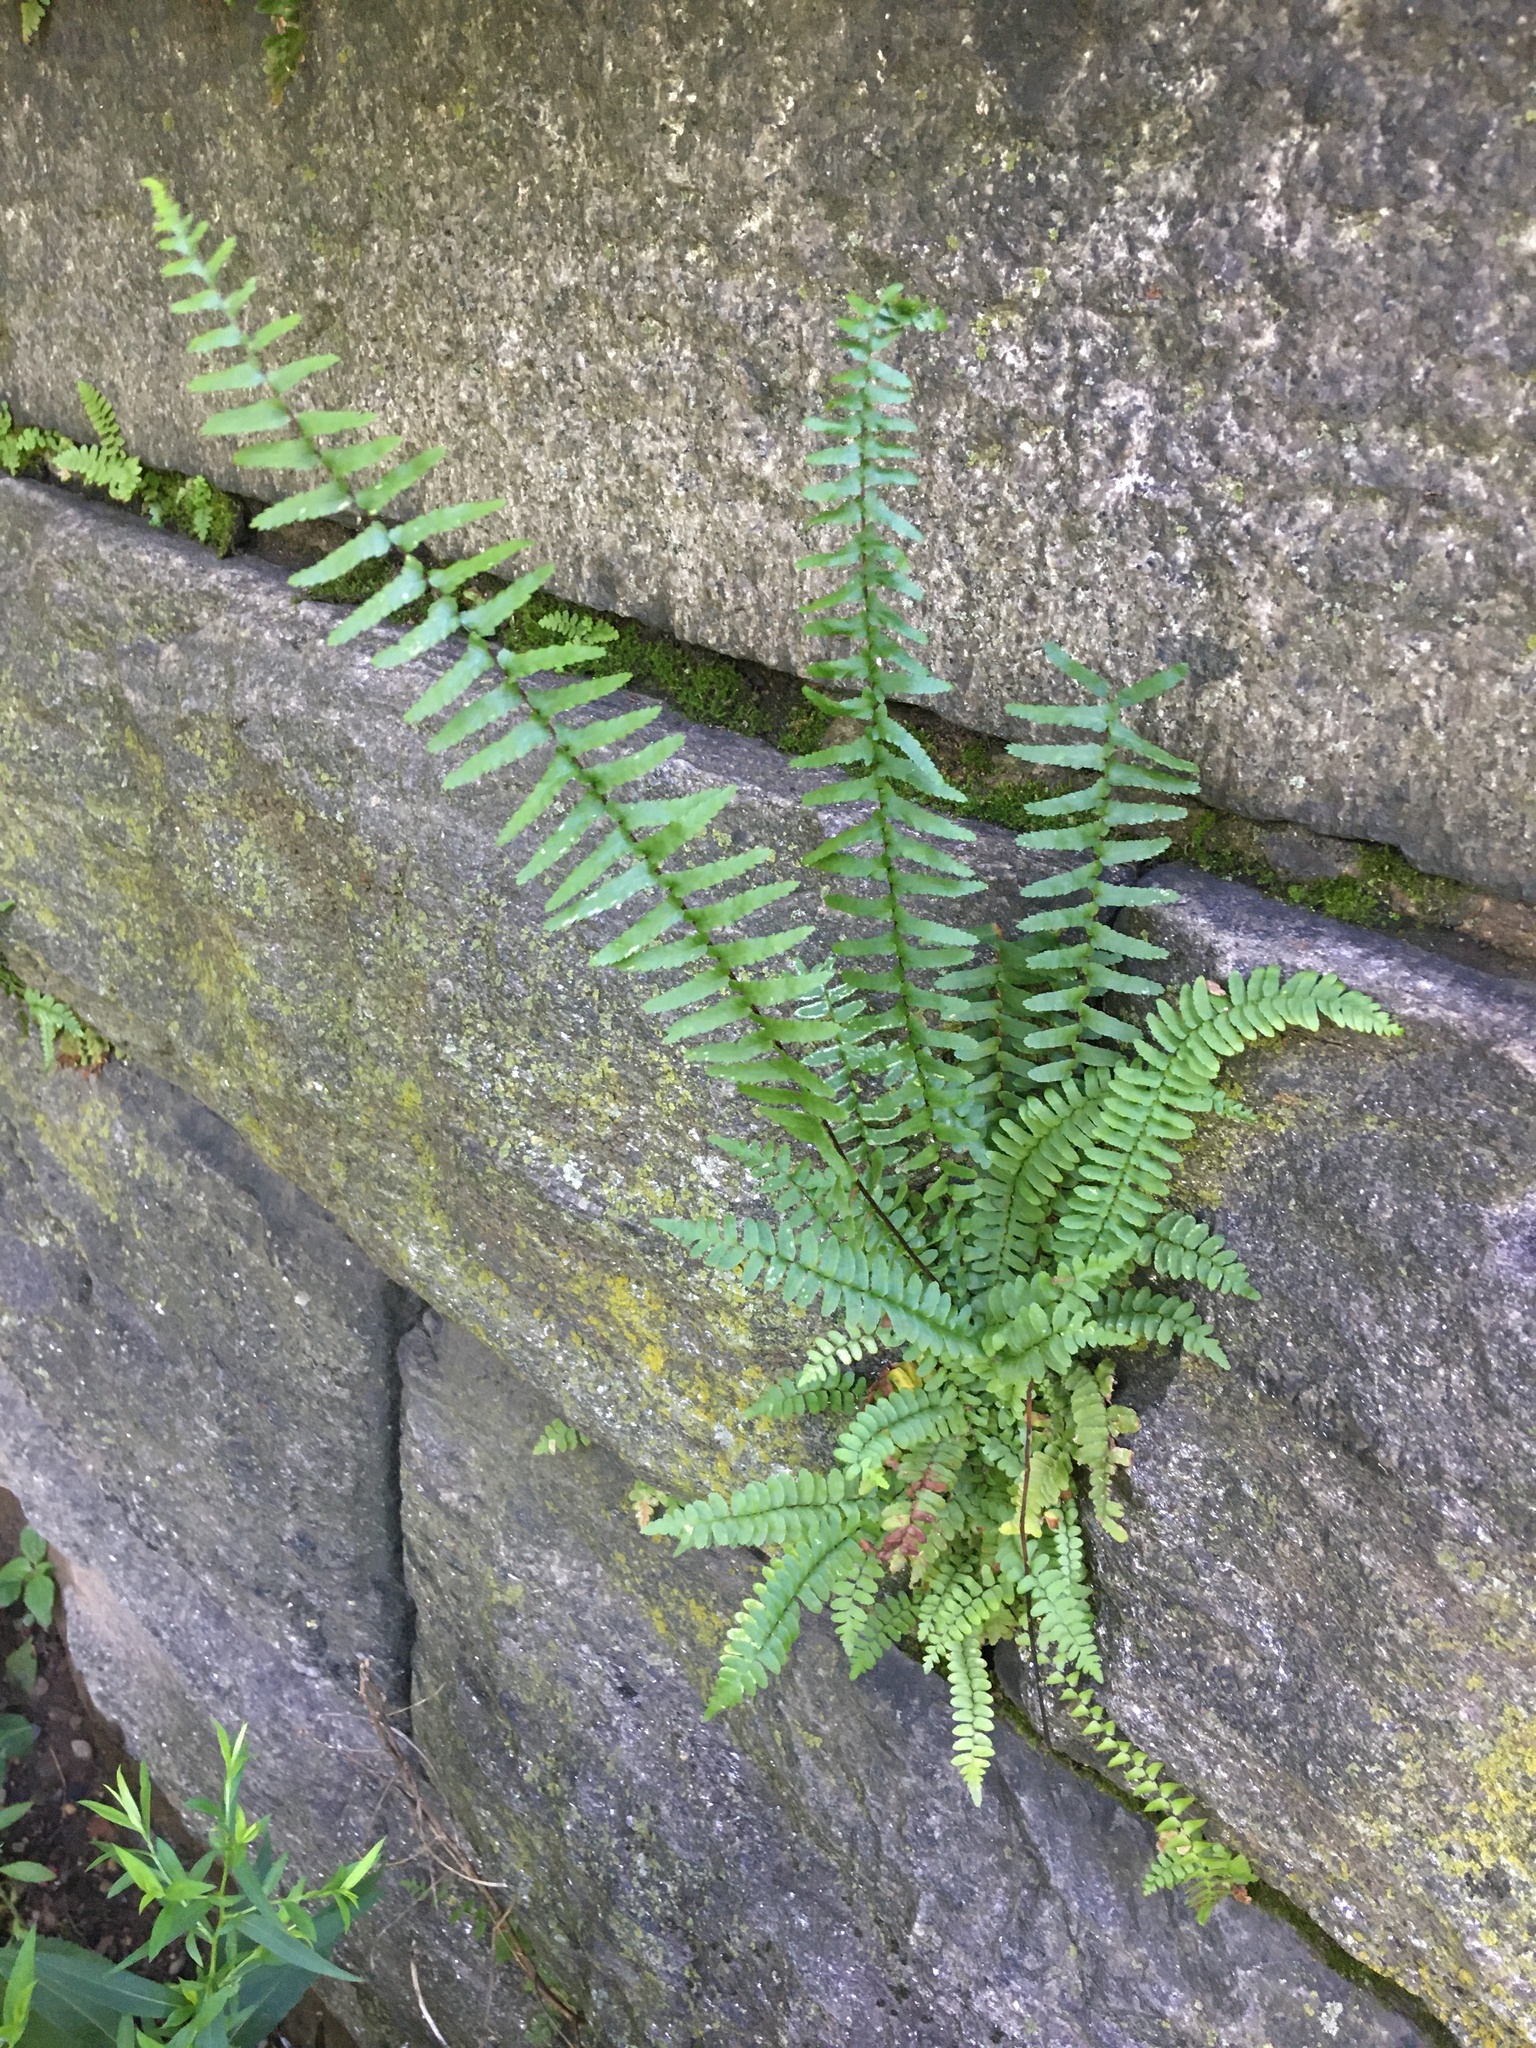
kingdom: Plantae
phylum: Tracheophyta
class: Polypodiopsida
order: Polypodiales
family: Aspleniaceae
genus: Asplenium
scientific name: Asplenium platyneuron
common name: Ebony spleenwort
